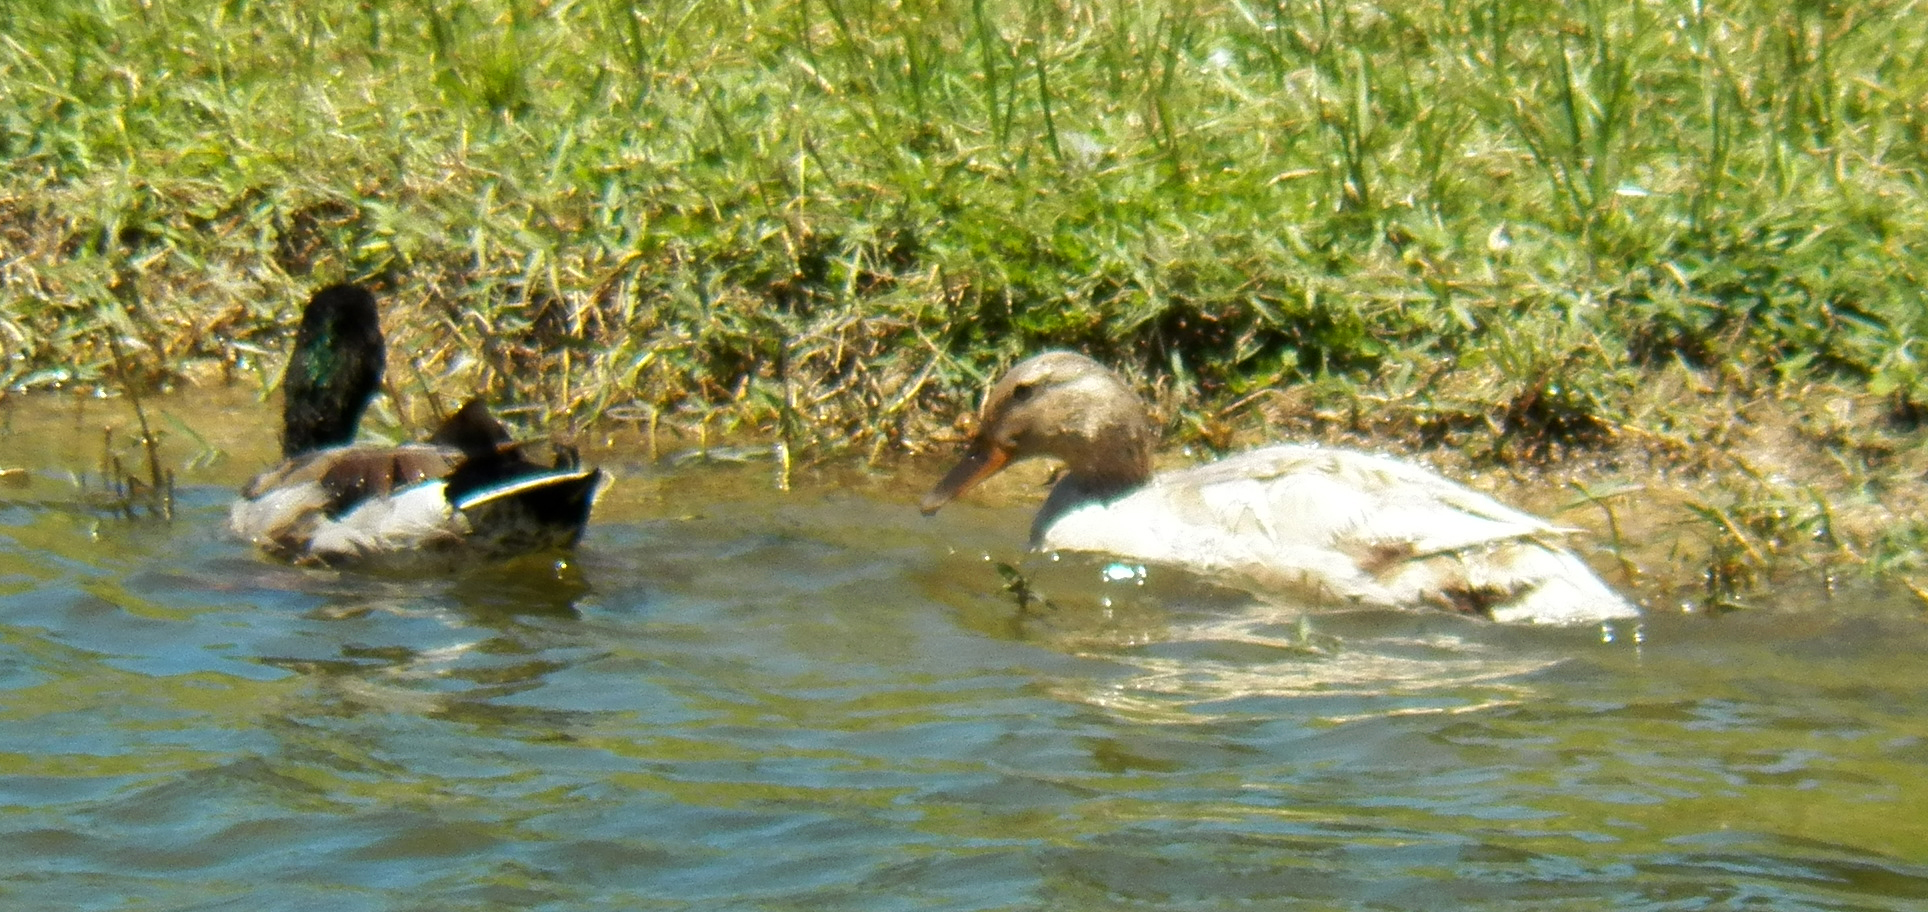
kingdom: Animalia
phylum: Chordata
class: Aves
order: Anseriformes
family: Anatidae
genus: Anas
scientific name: Anas platyrhynchos
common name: Mallard
